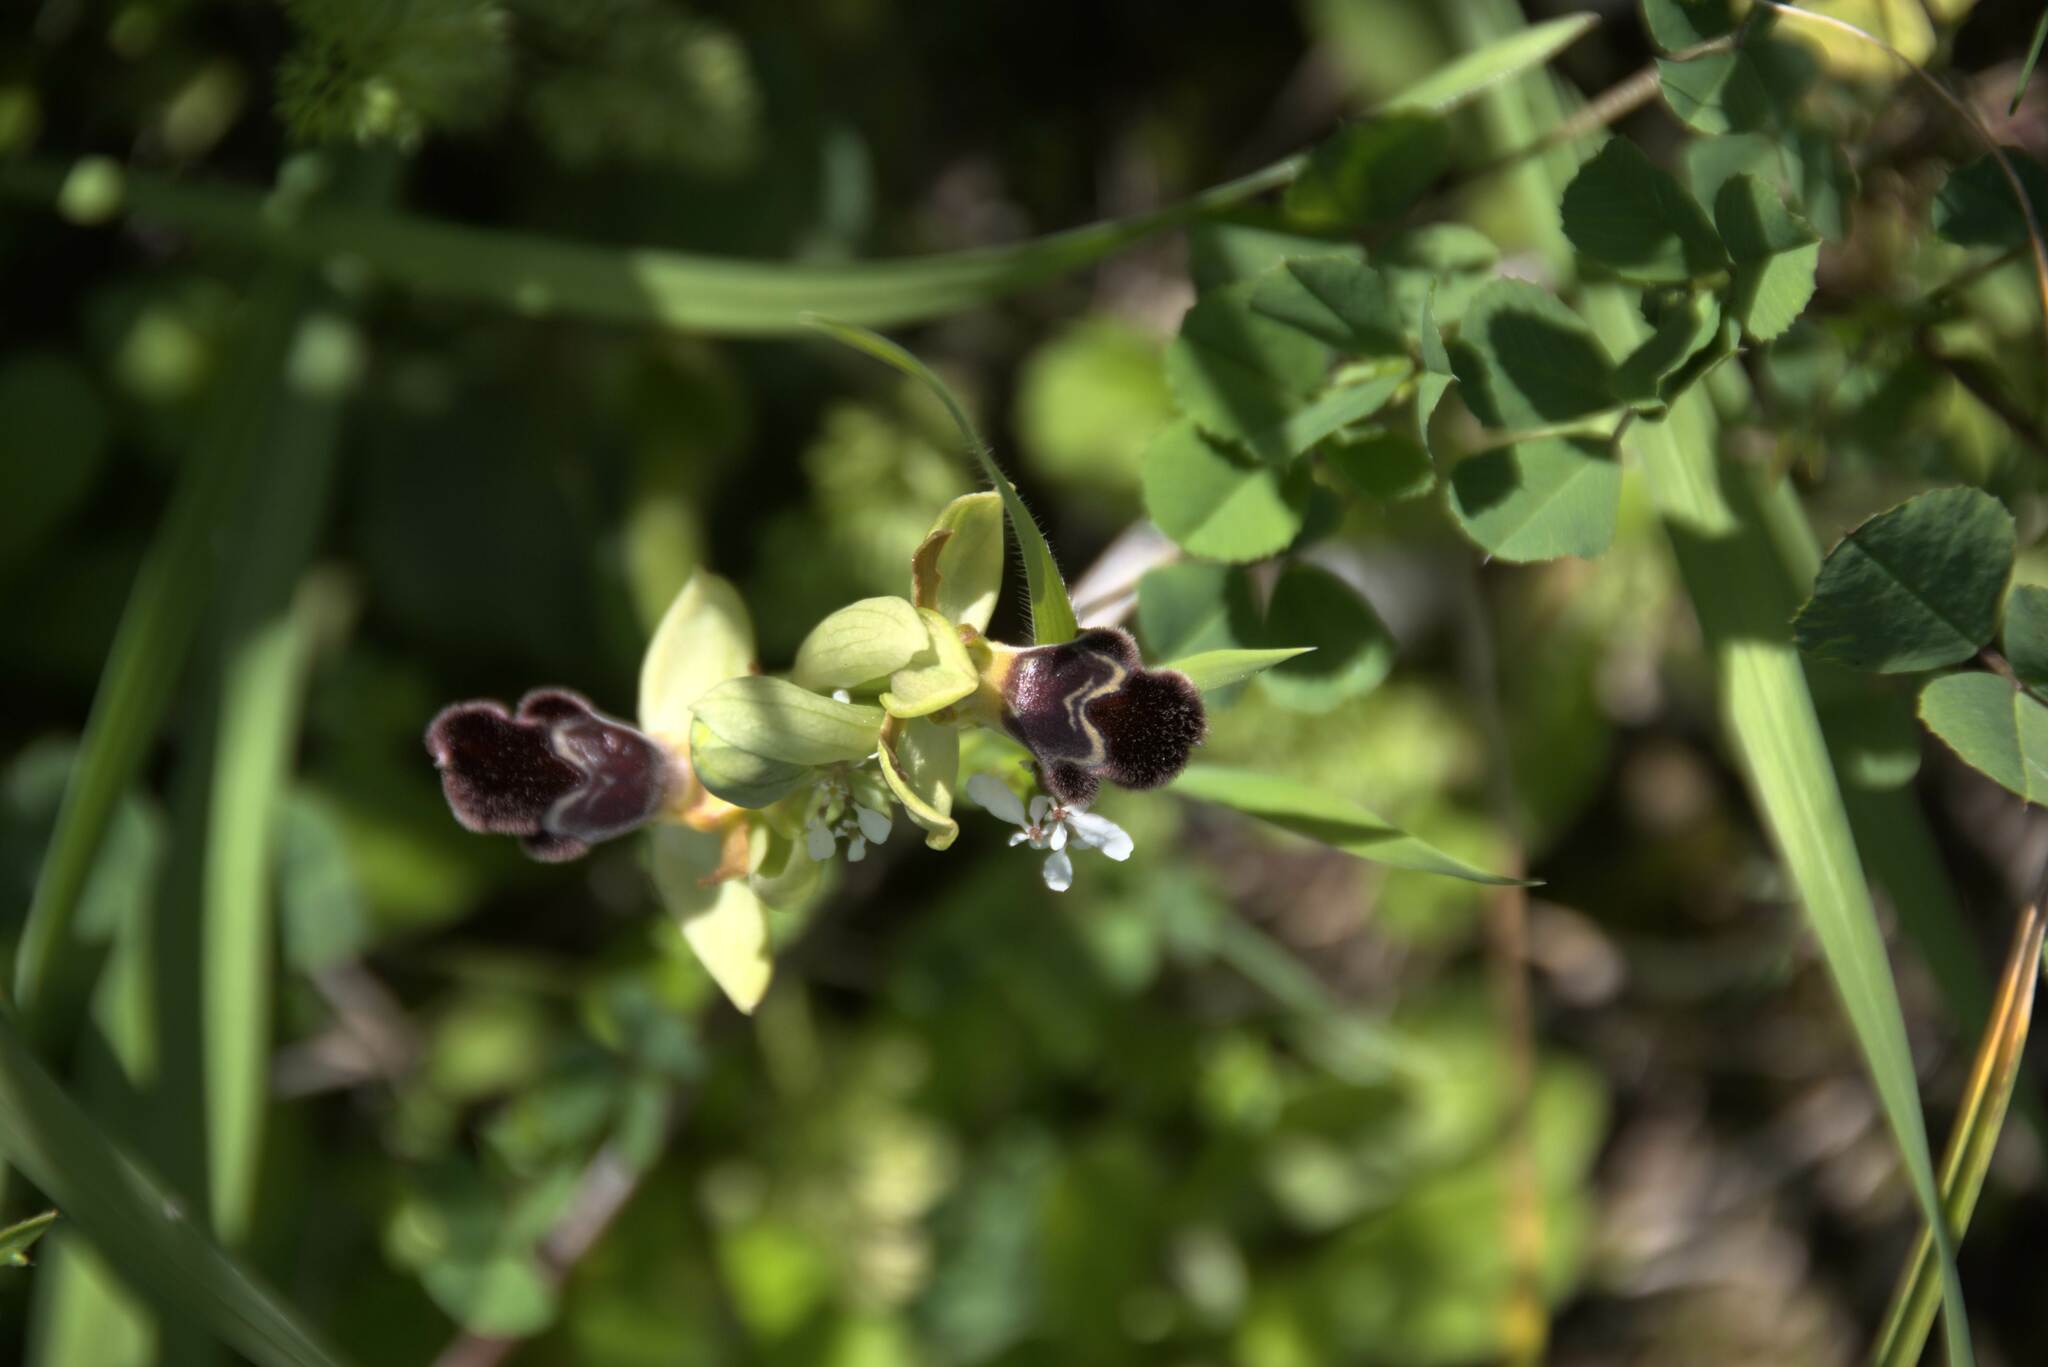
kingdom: Plantae
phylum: Tracheophyta
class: Liliopsida
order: Asparagales
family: Orchidaceae
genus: Ophrys
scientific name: Ophrys omegaifera
